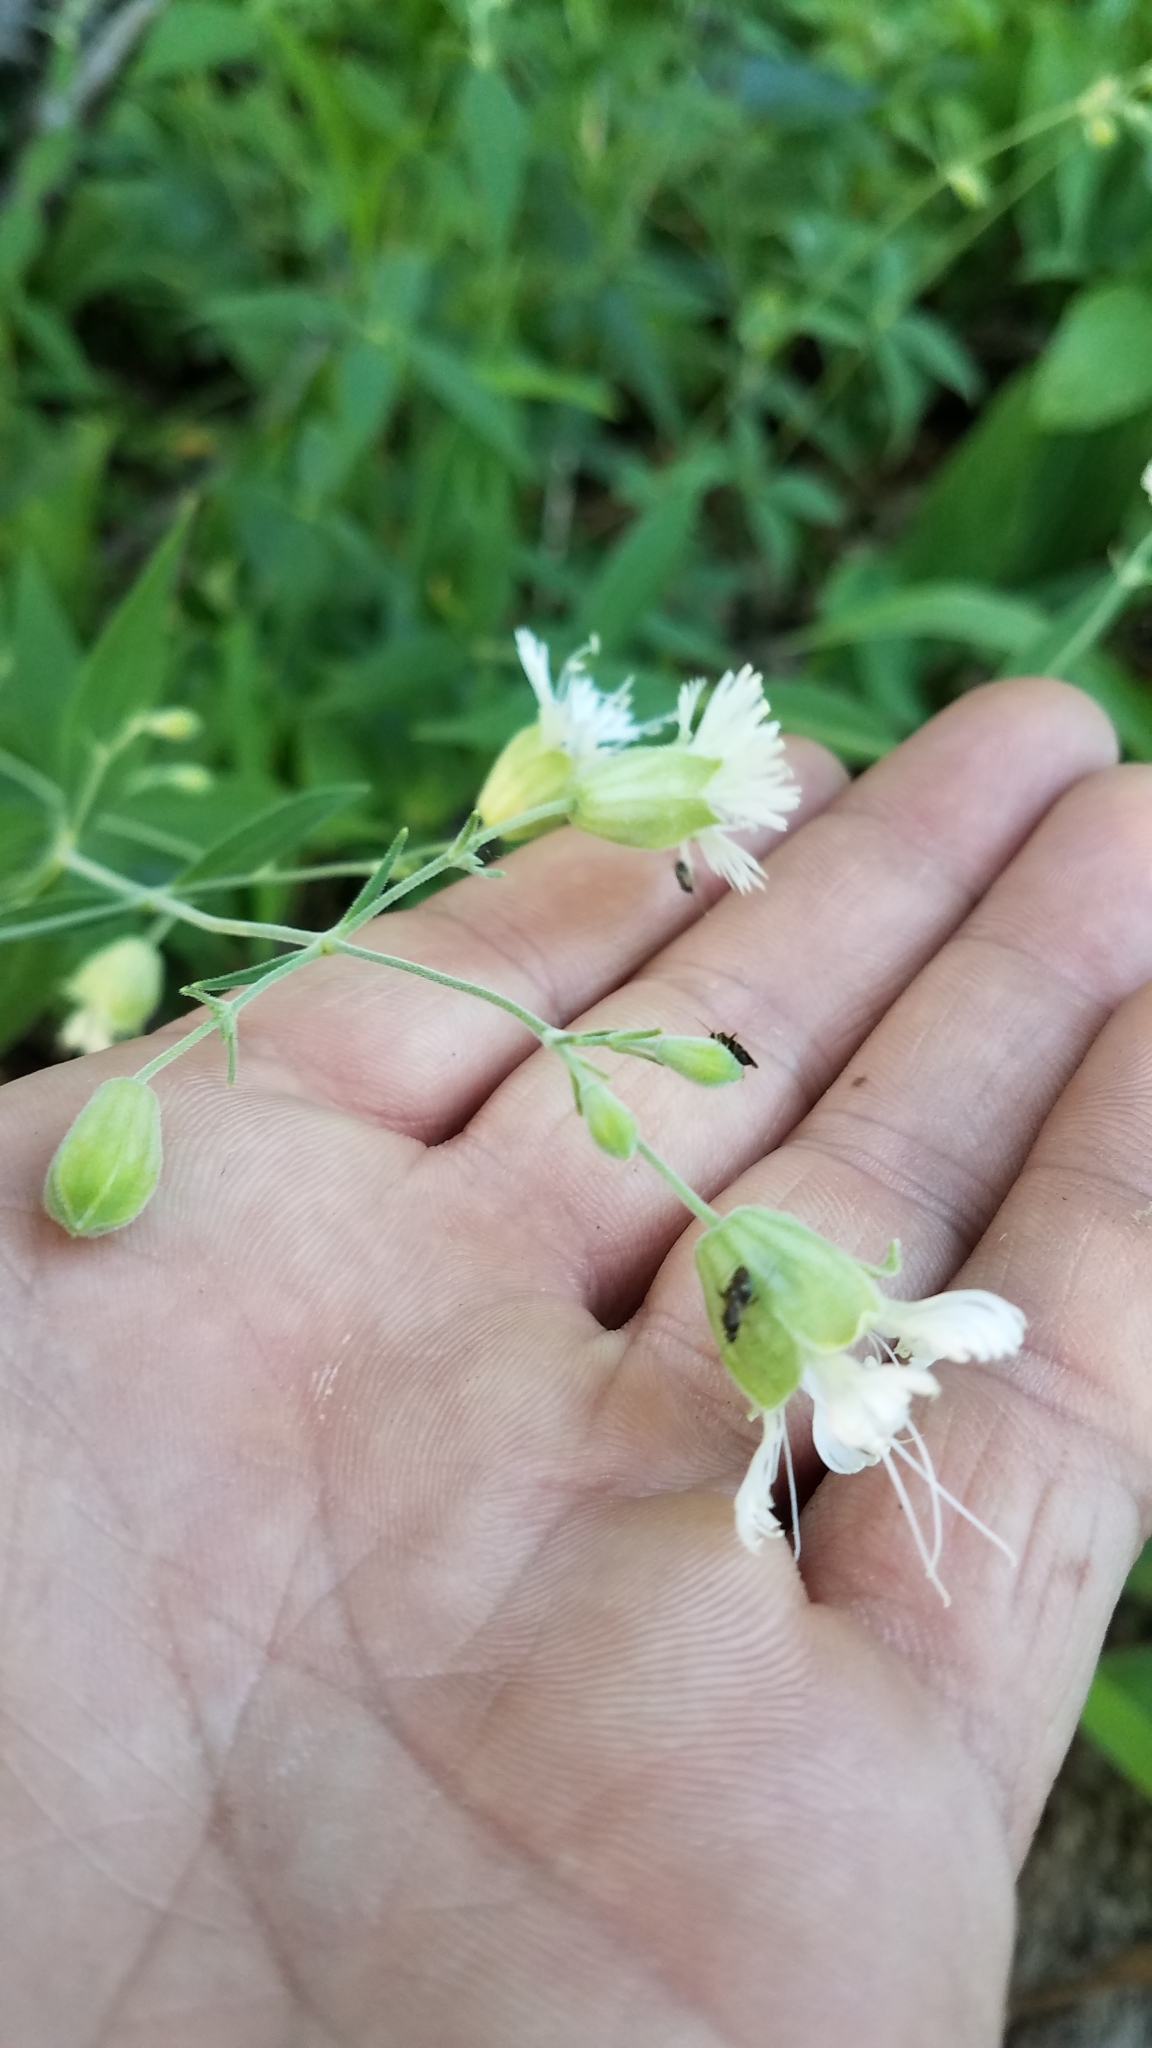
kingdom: Plantae
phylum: Tracheophyta
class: Magnoliopsida
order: Caryophyllales
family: Caryophyllaceae
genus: Silene
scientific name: Silene stellata
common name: Starry campion
